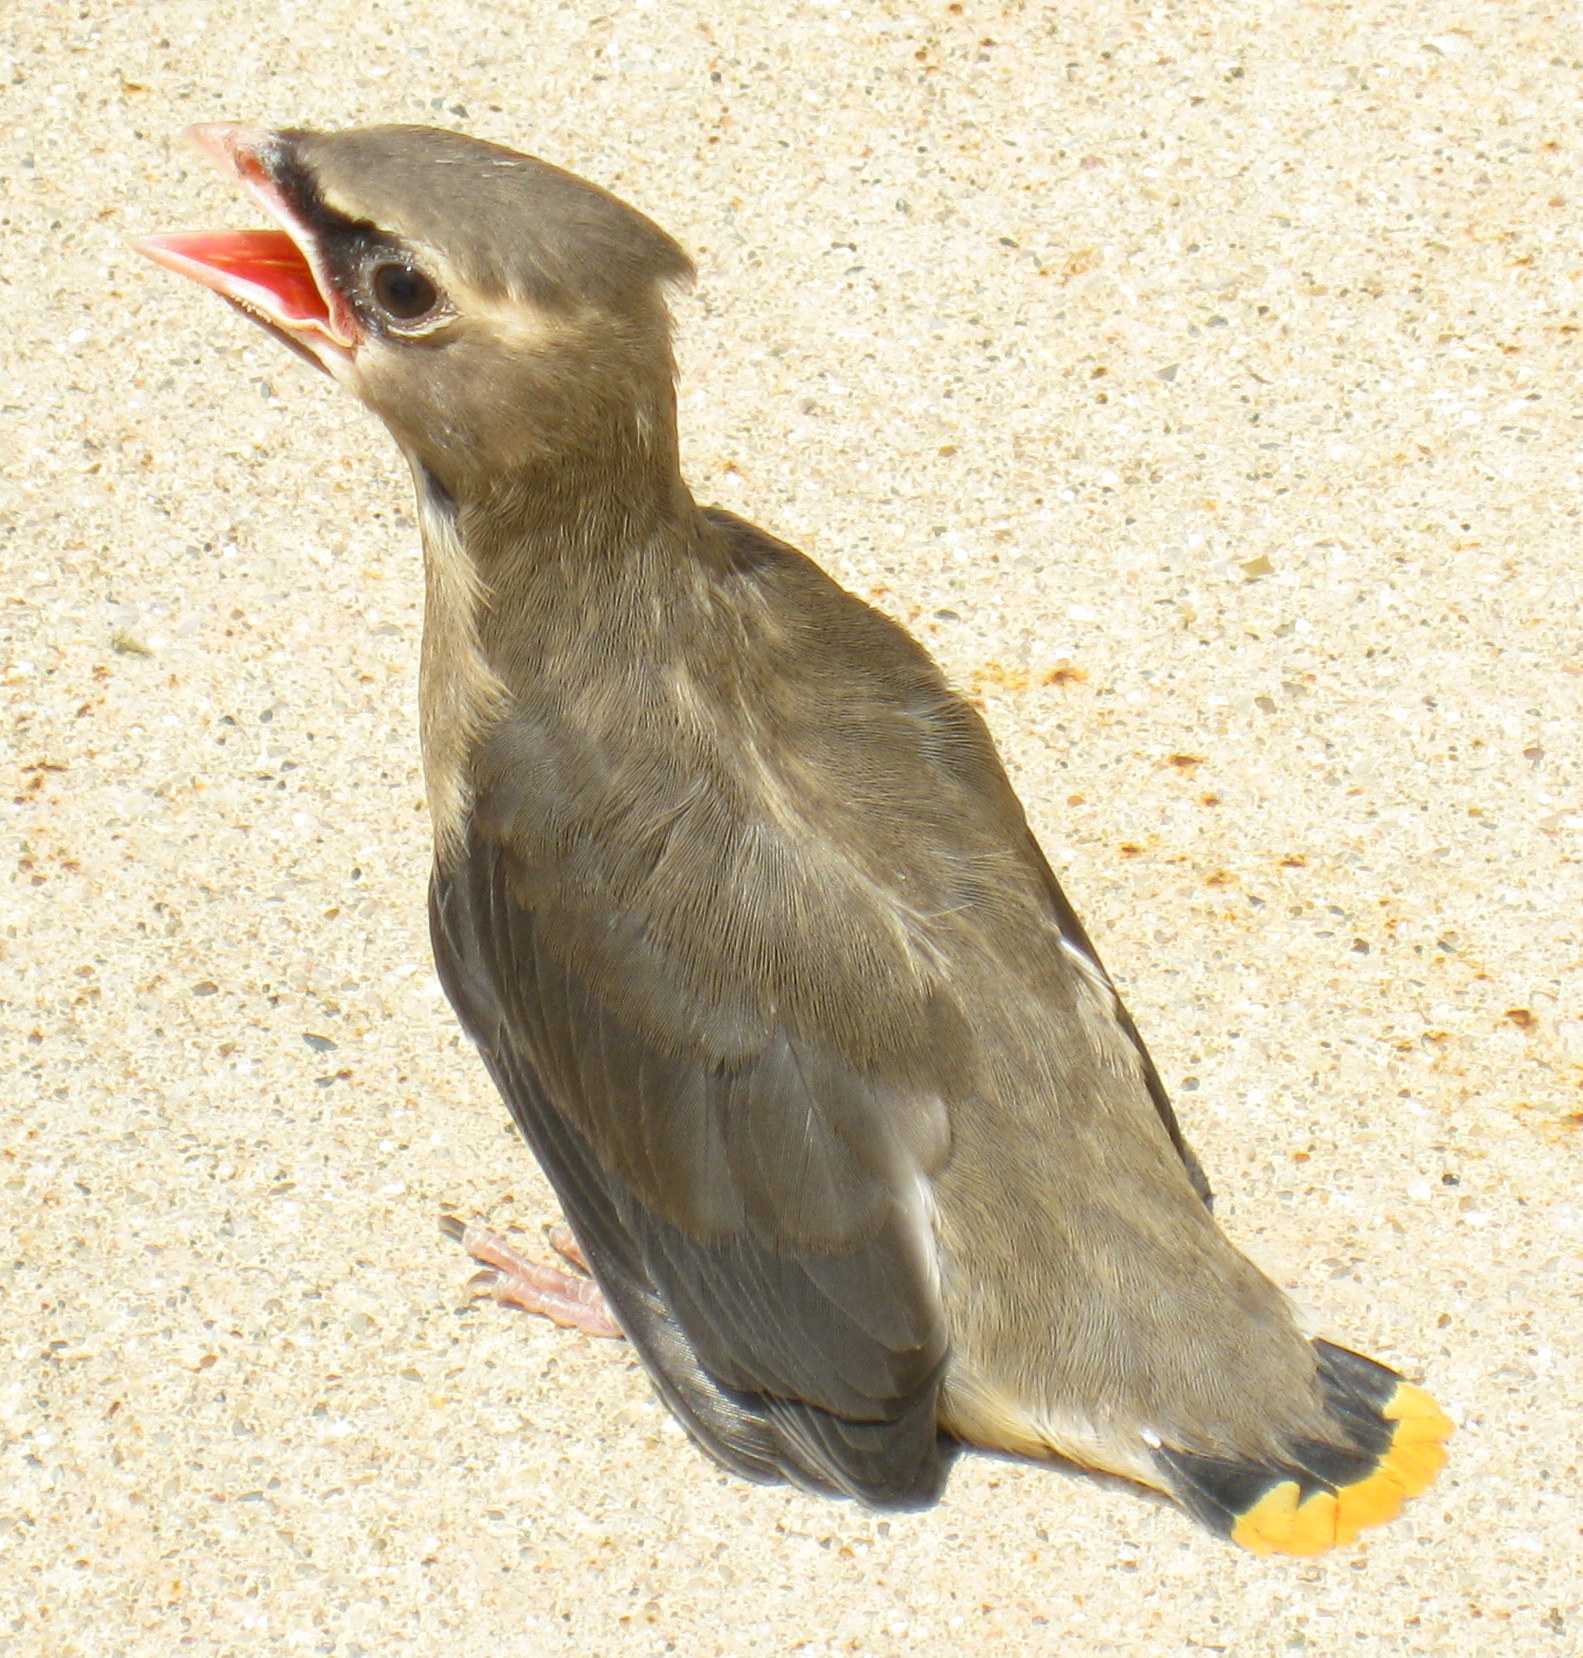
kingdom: Animalia
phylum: Chordata
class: Aves
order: Passeriformes
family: Bombycillidae
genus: Bombycilla
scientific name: Bombycilla cedrorum
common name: Cedar waxwing
